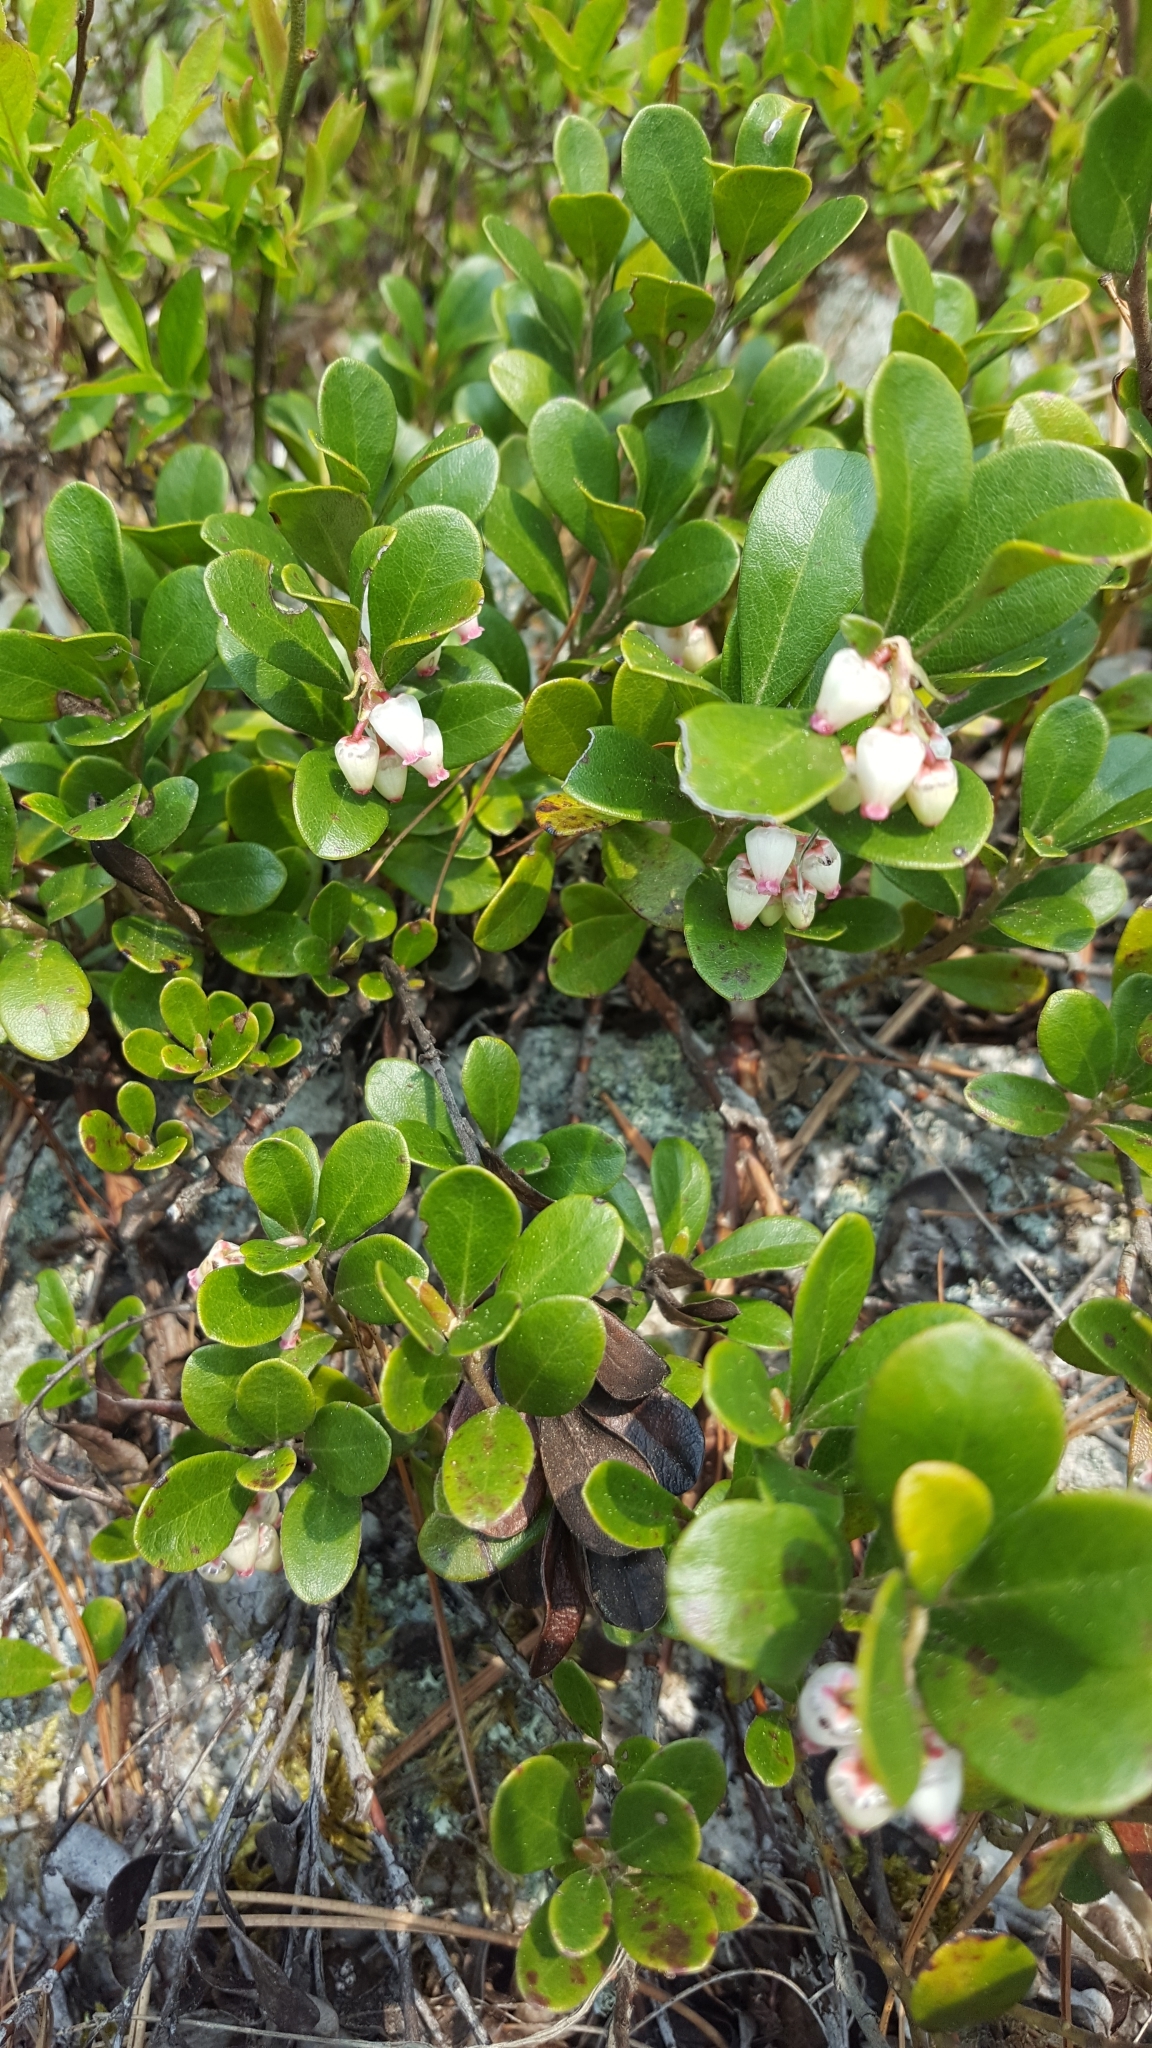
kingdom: Plantae
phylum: Tracheophyta
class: Magnoliopsida
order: Ericales
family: Ericaceae
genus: Arctostaphylos
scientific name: Arctostaphylos uva-ursi
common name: Bearberry
